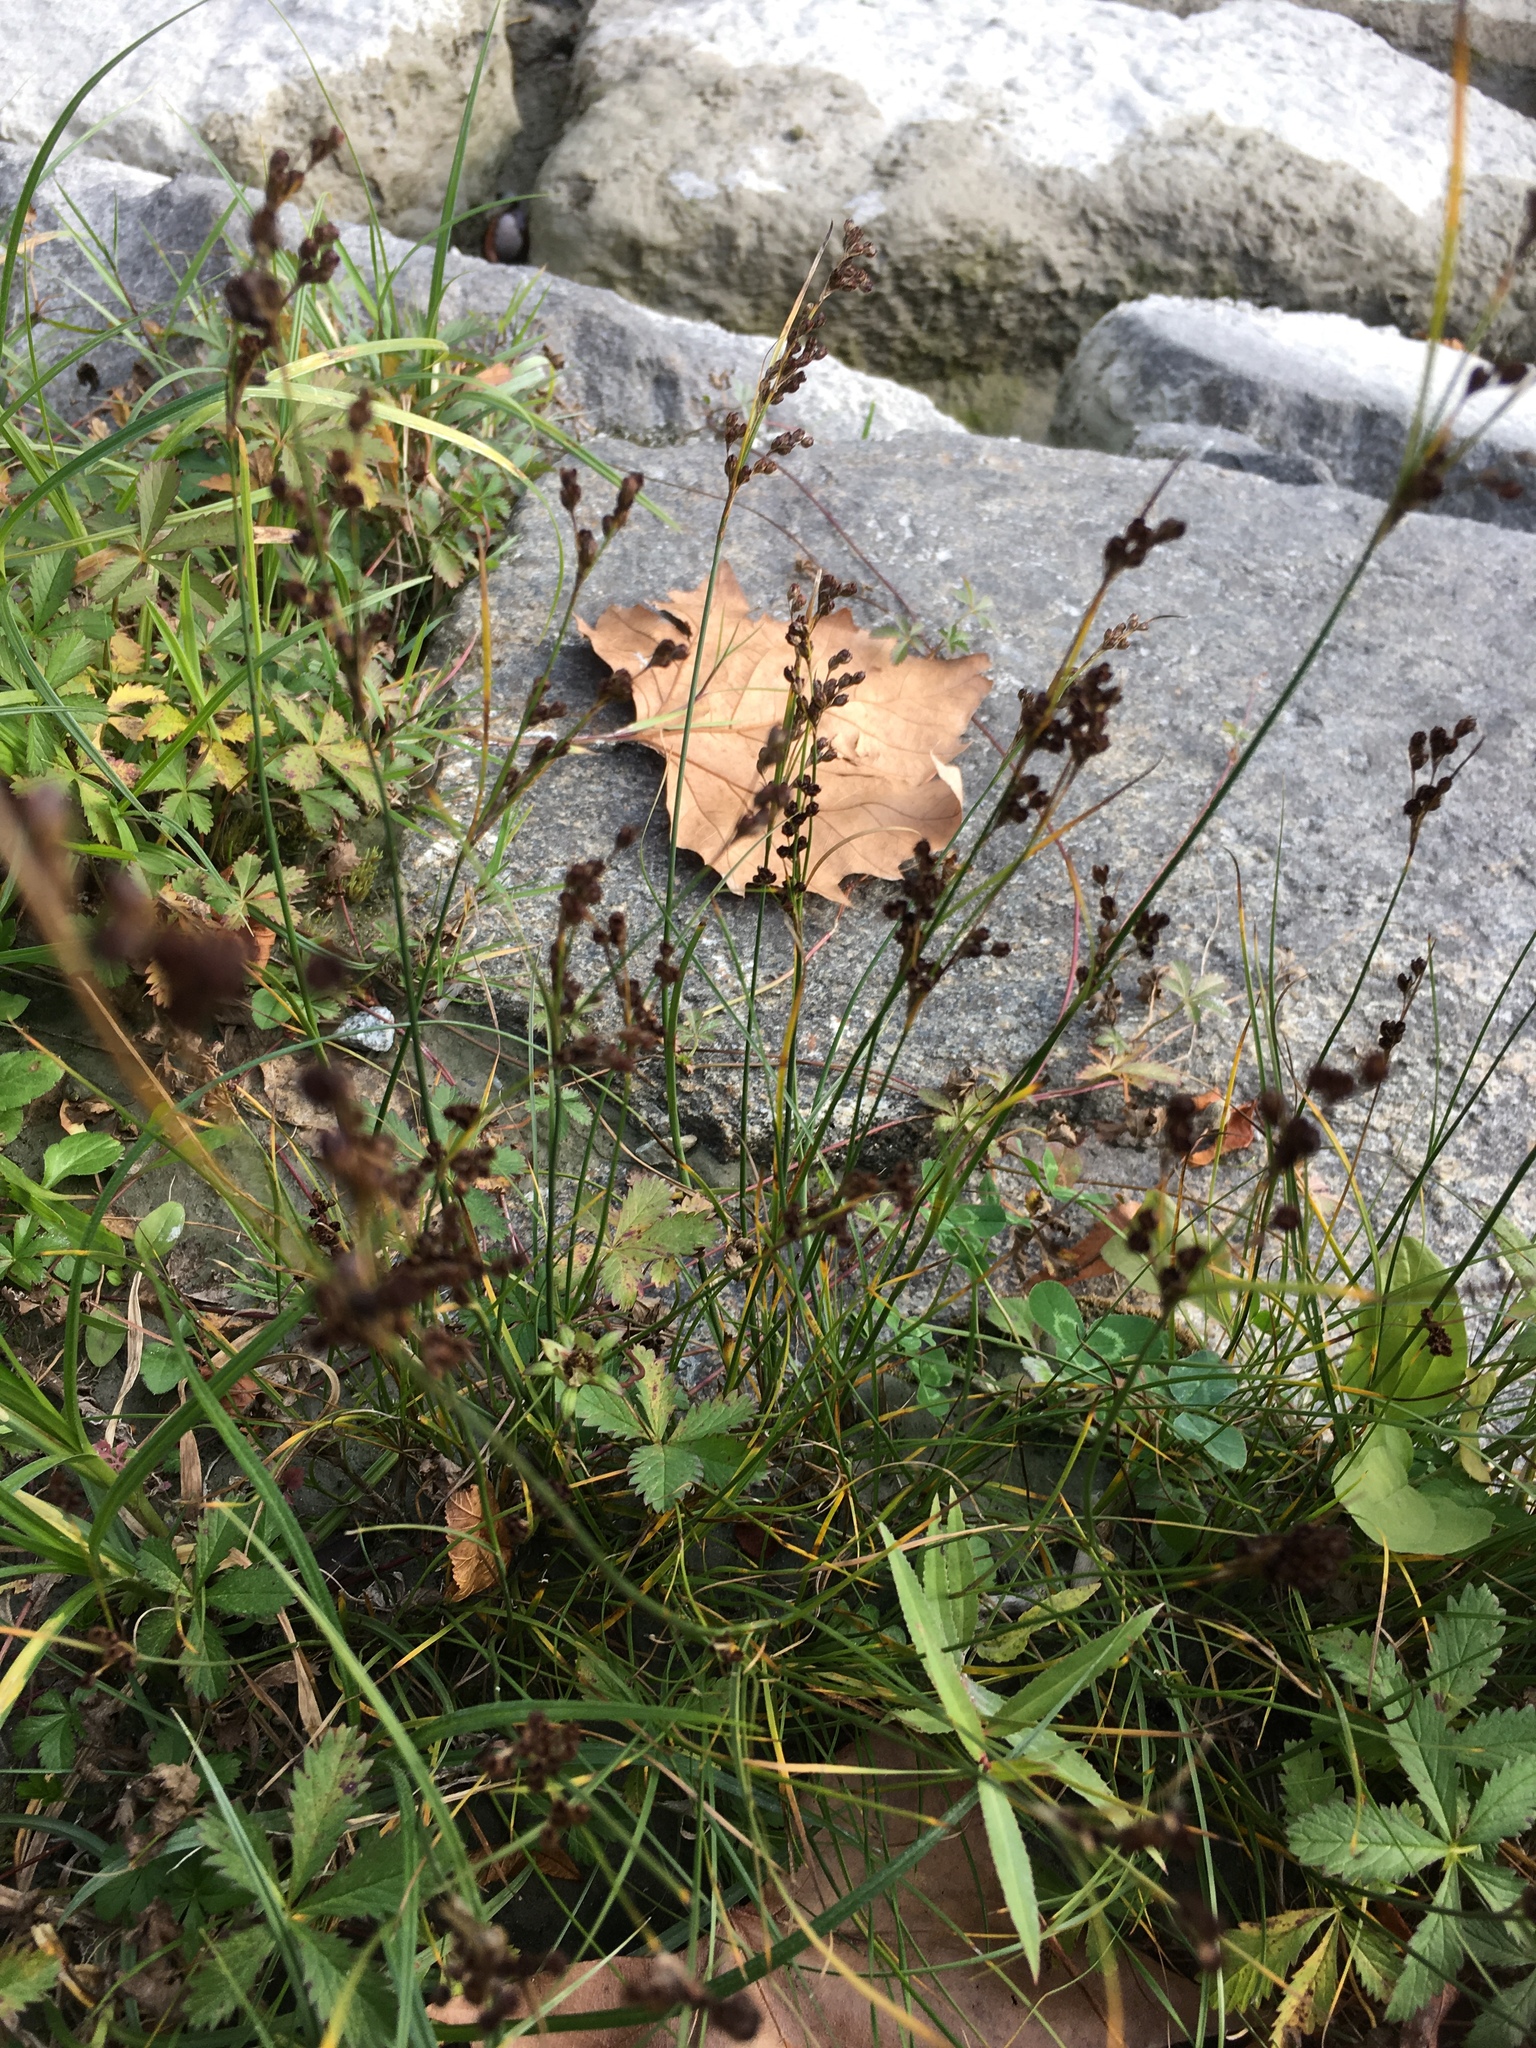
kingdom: Plantae
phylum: Tracheophyta
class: Liliopsida
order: Poales
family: Juncaceae
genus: Juncus
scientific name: Juncus compressus
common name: Round-fruited rush
